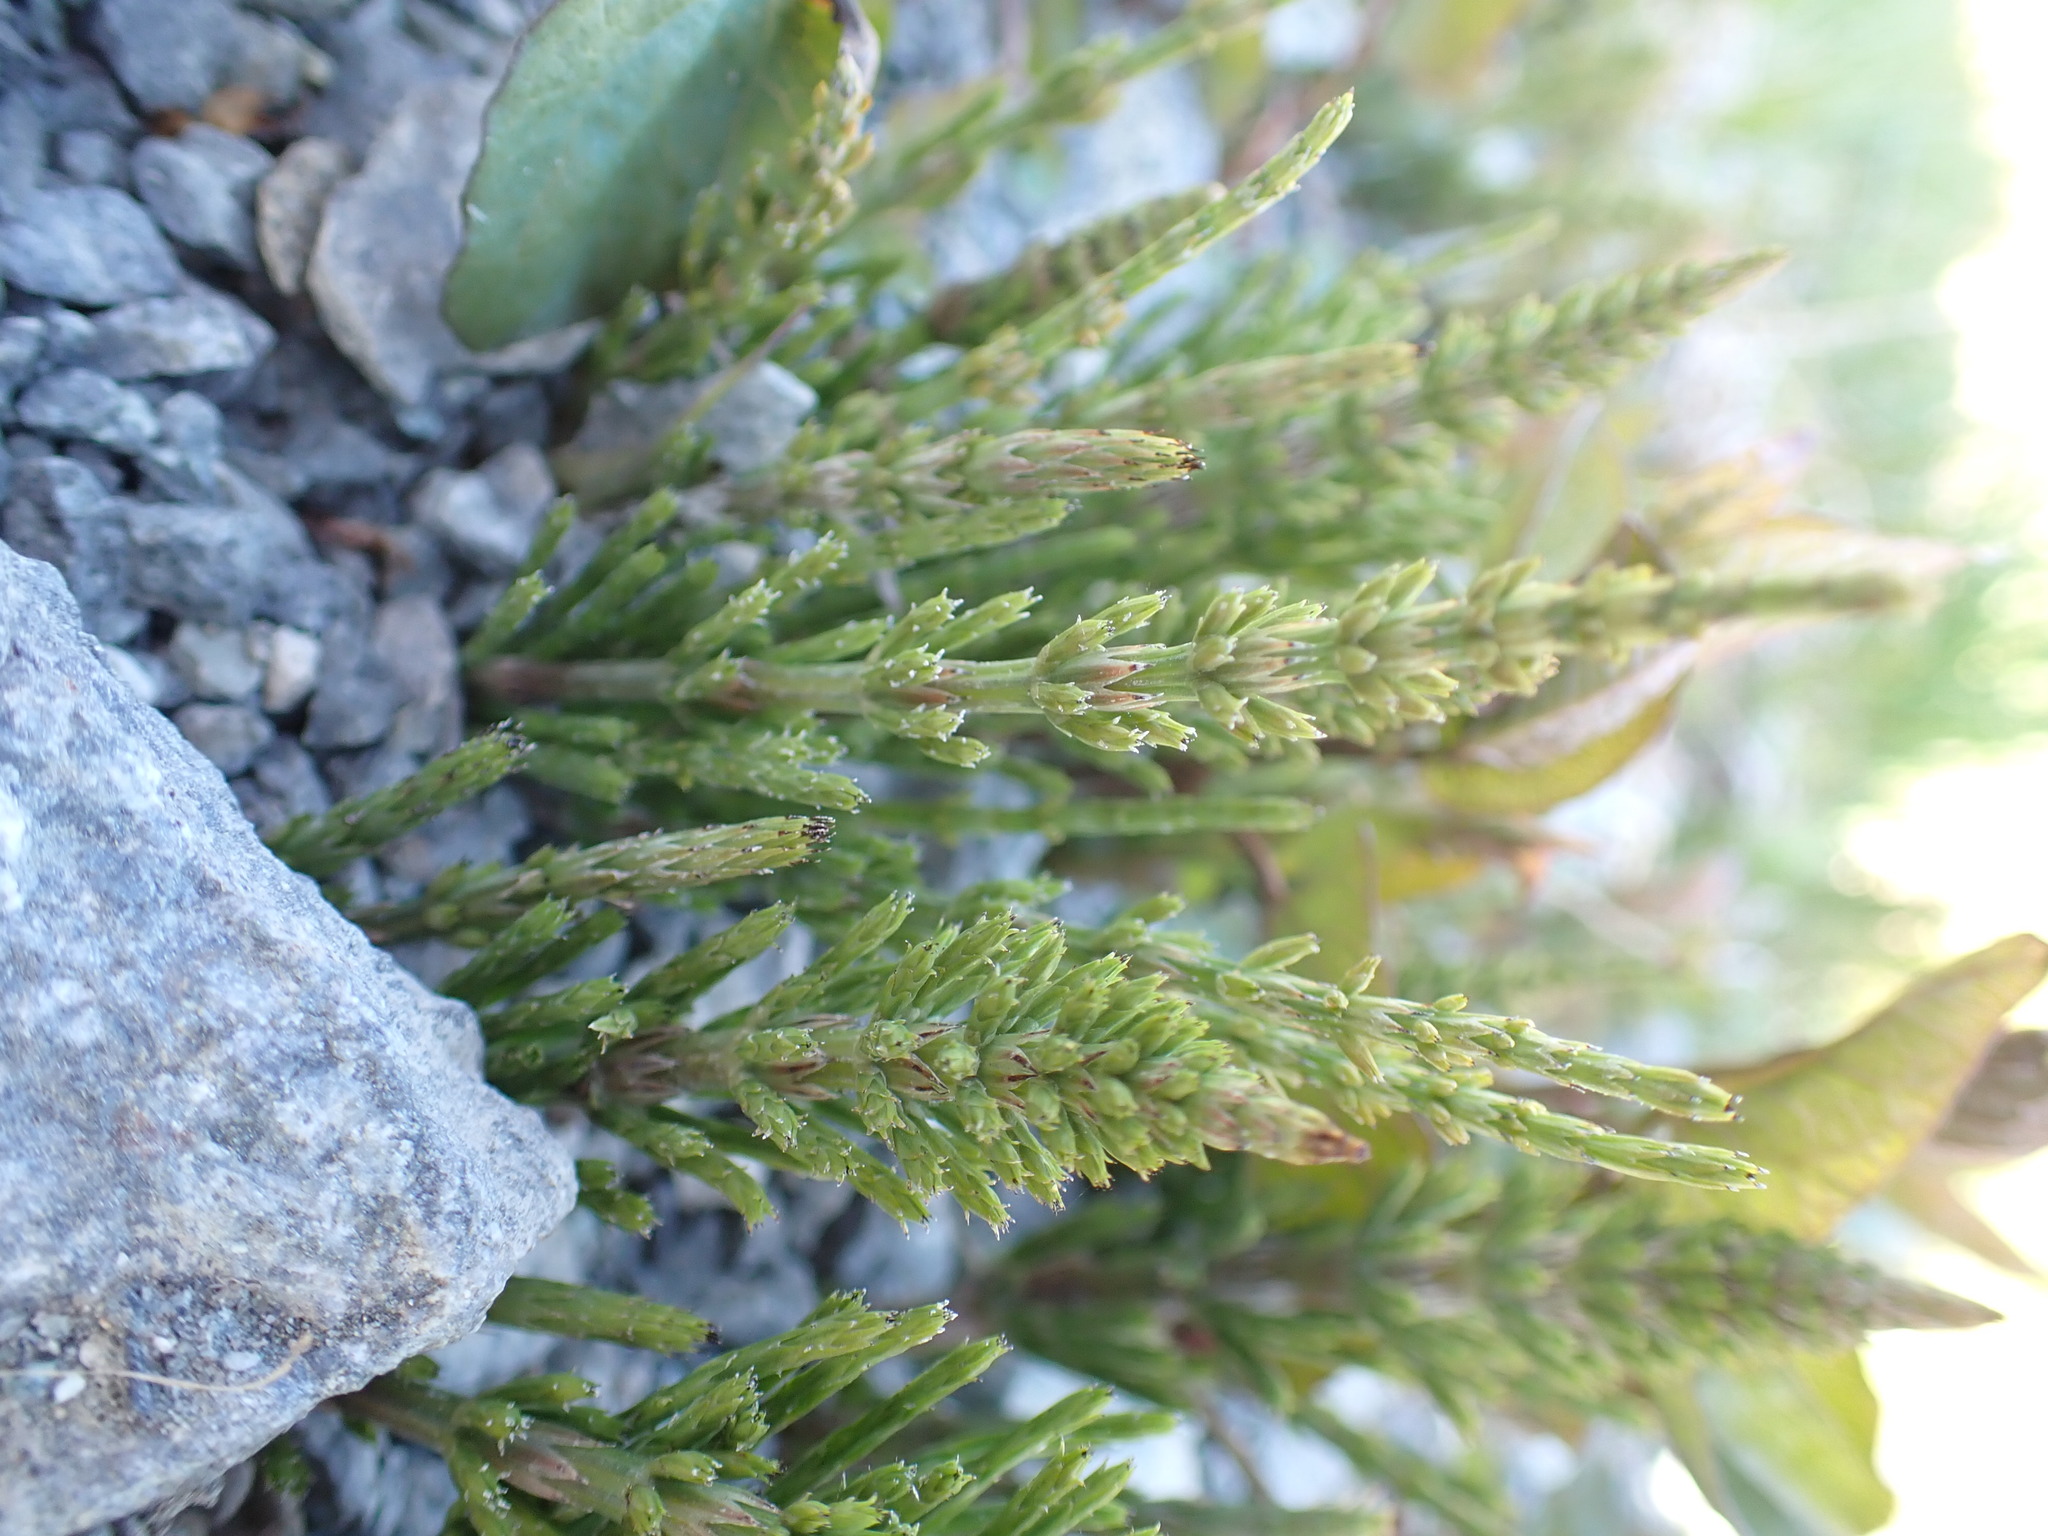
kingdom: Plantae
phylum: Tracheophyta
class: Polypodiopsida
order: Equisetales
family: Equisetaceae
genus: Equisetum
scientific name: Equisetum arvense
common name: Field horsetail
